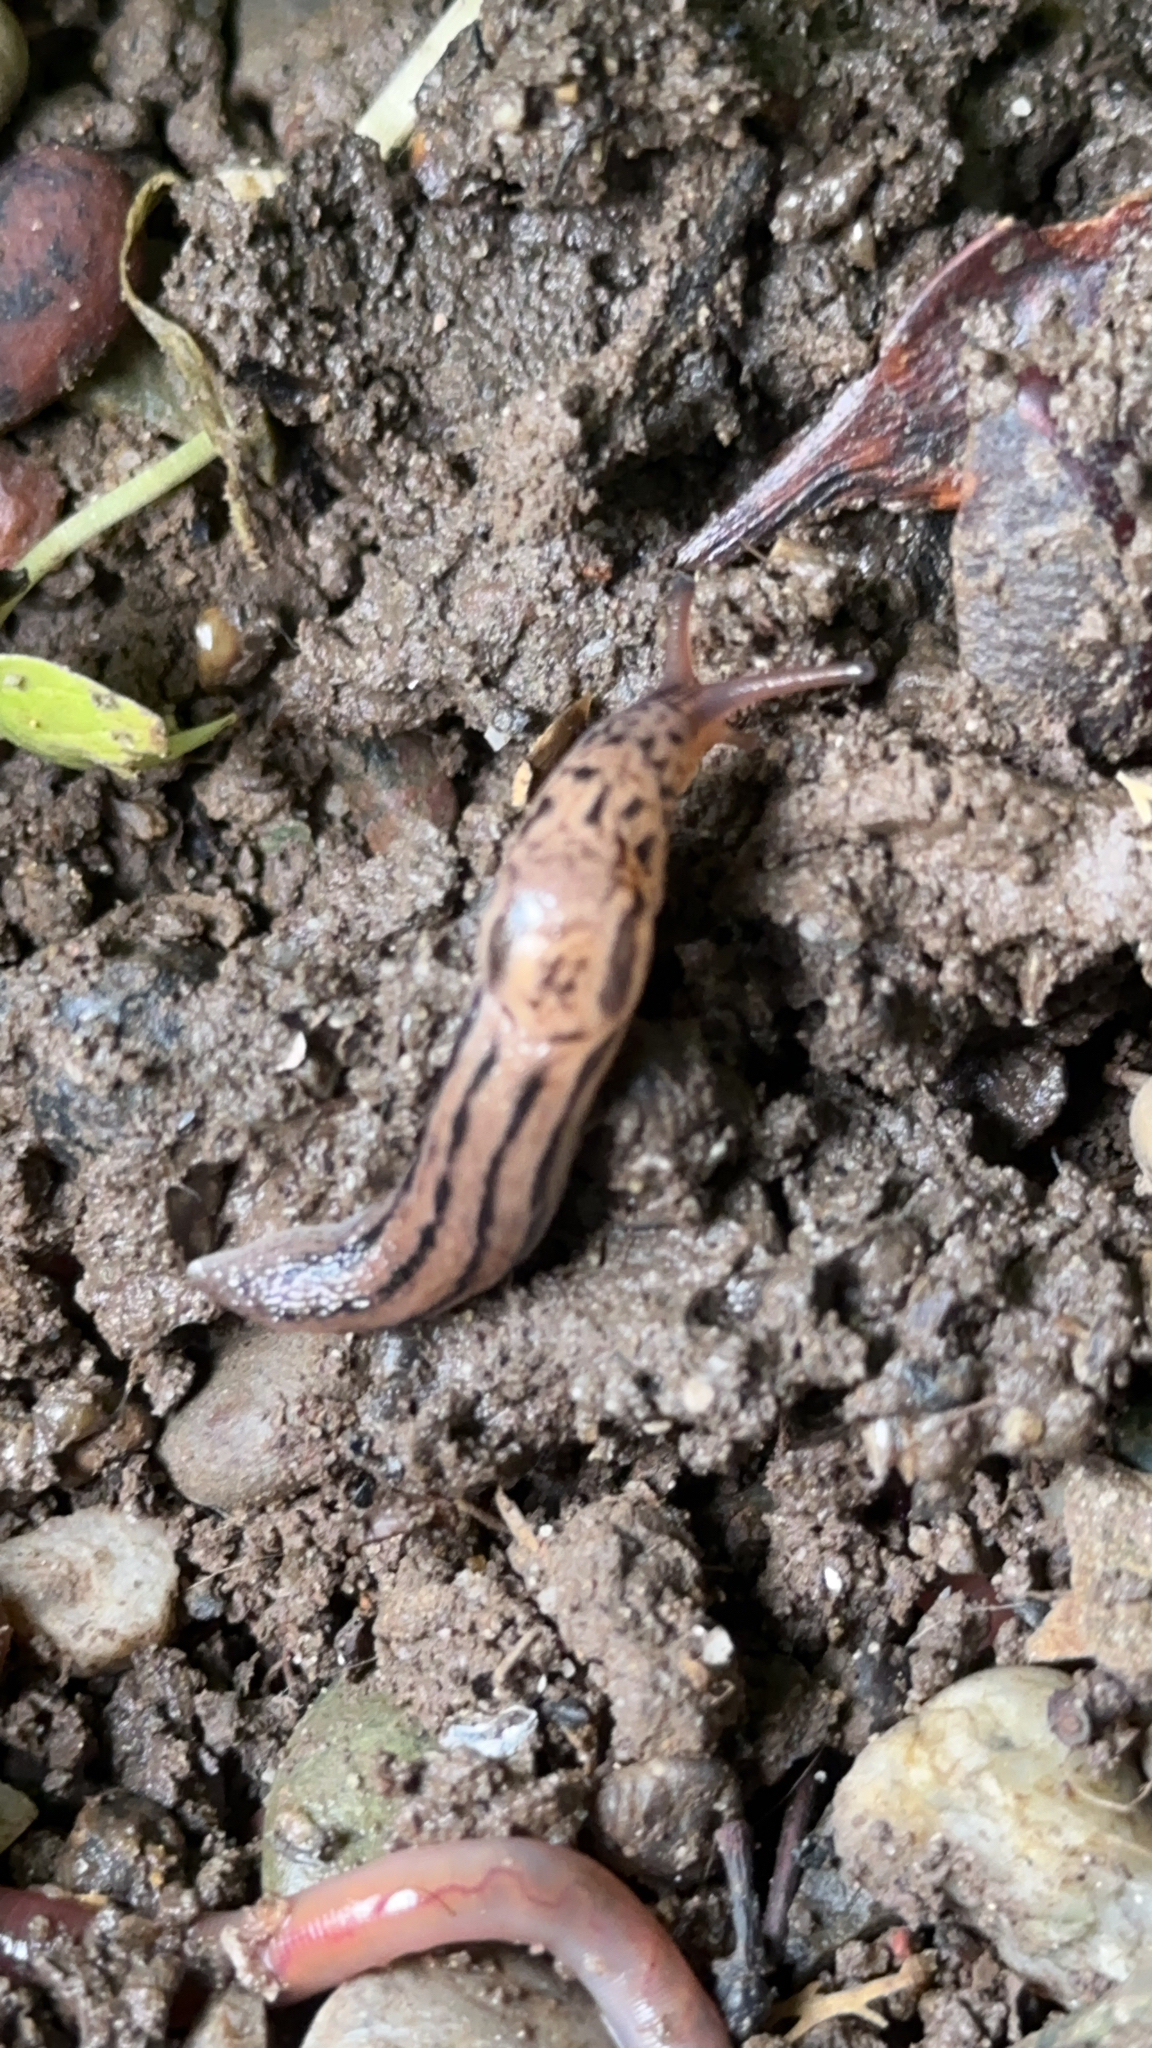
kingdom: Animalia
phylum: Mollusca
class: Gastropoda
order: Stylommatophora
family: Limacidae
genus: Limax
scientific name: Limax maximus
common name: Great grey slug
